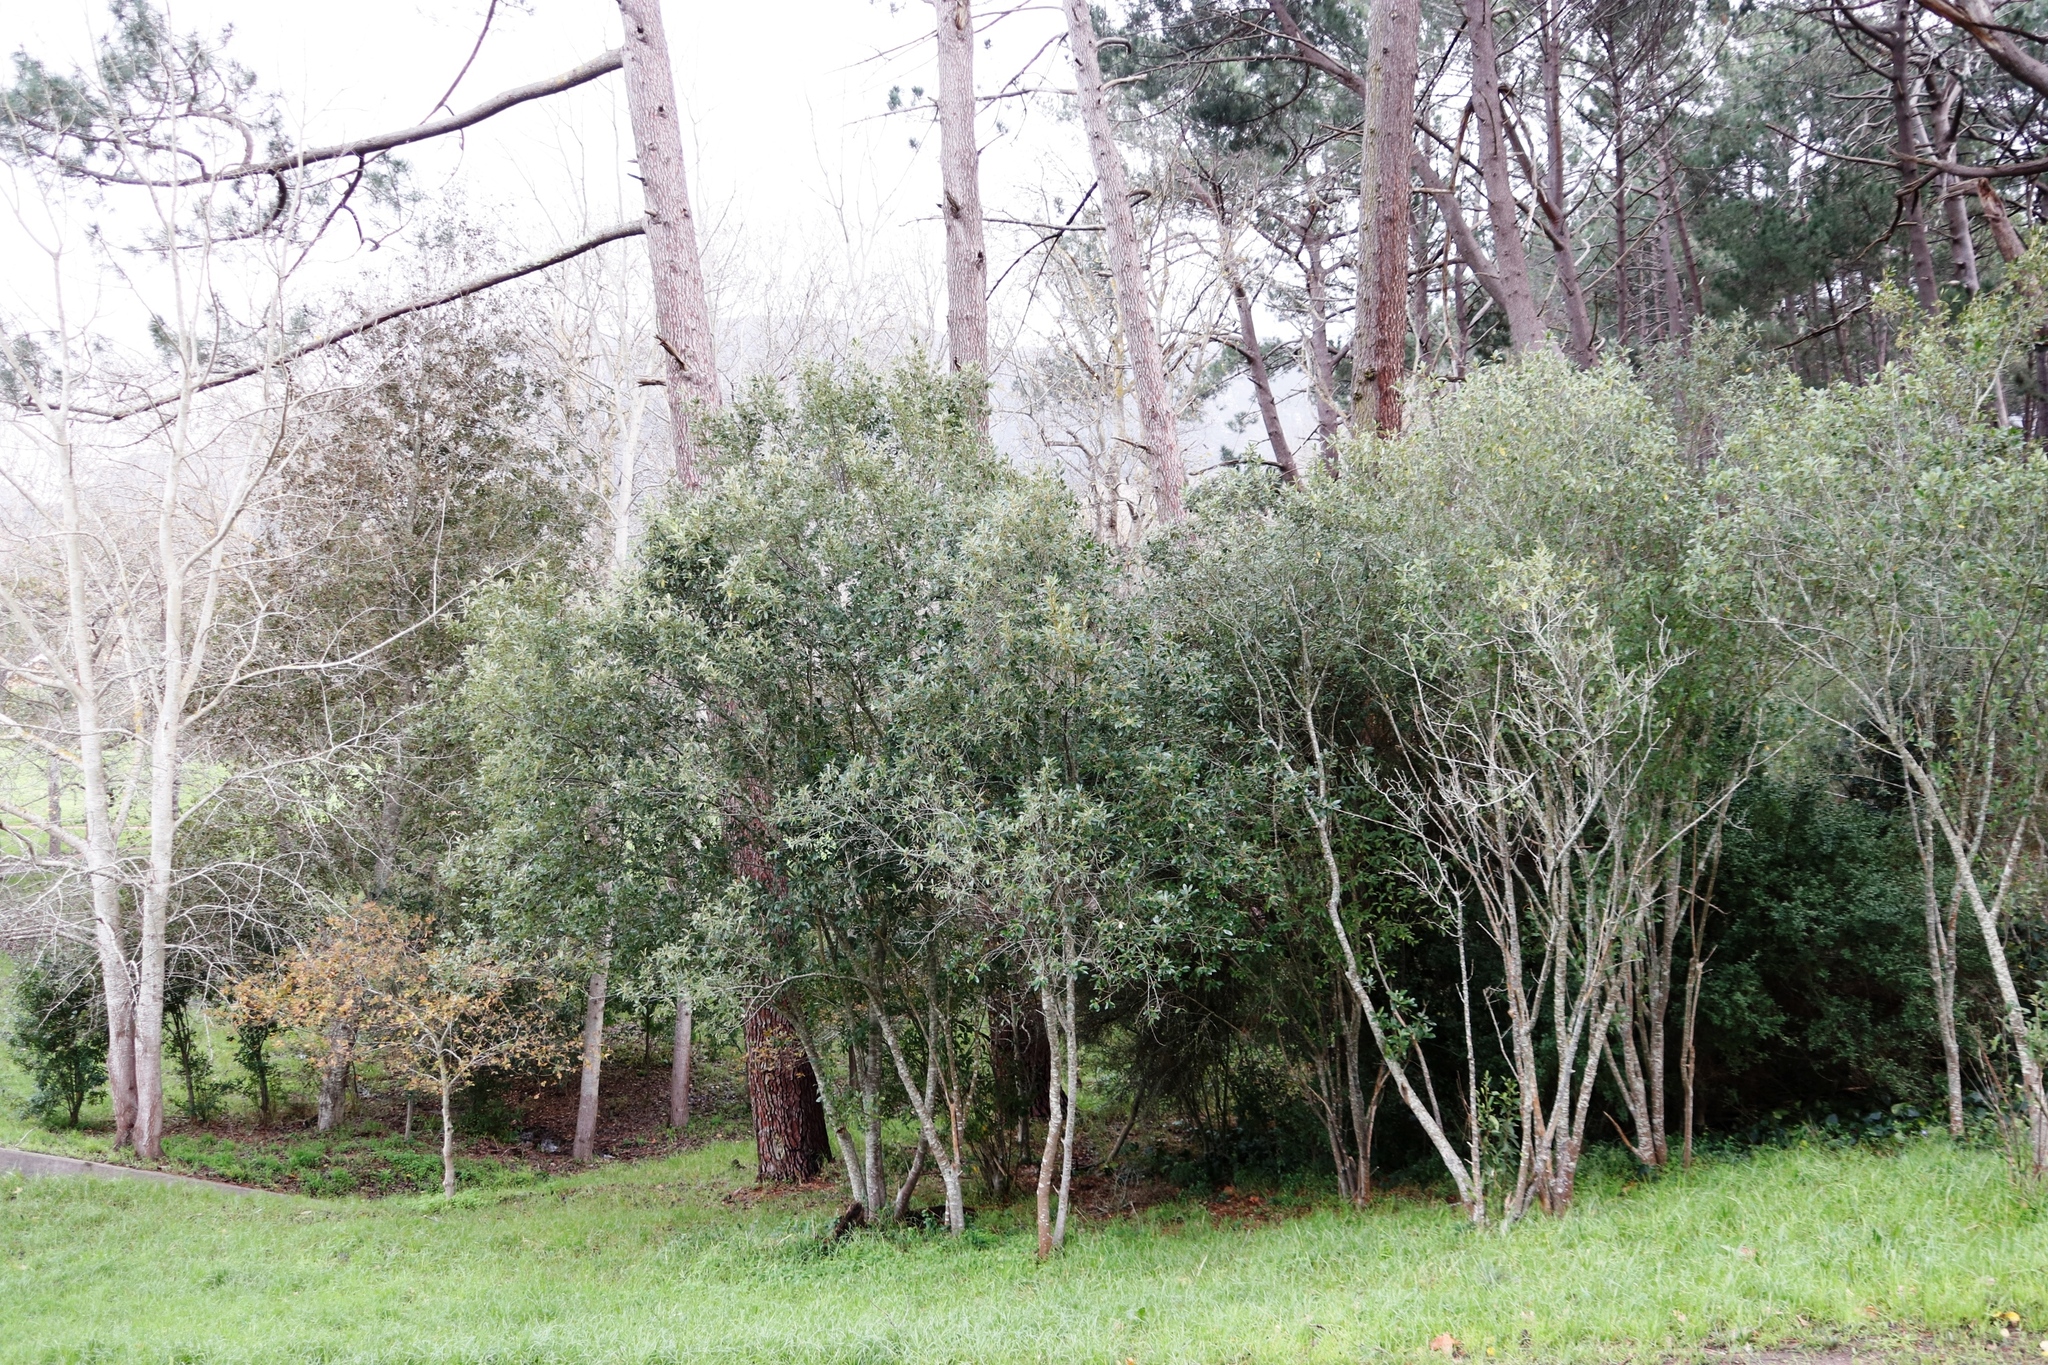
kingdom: Plantae
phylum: Tracheophyta
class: Magnoliopsida
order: Malpighiales
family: Achariaceae
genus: Kiggelaria
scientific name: Kiggelaria africana
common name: Wild peach
